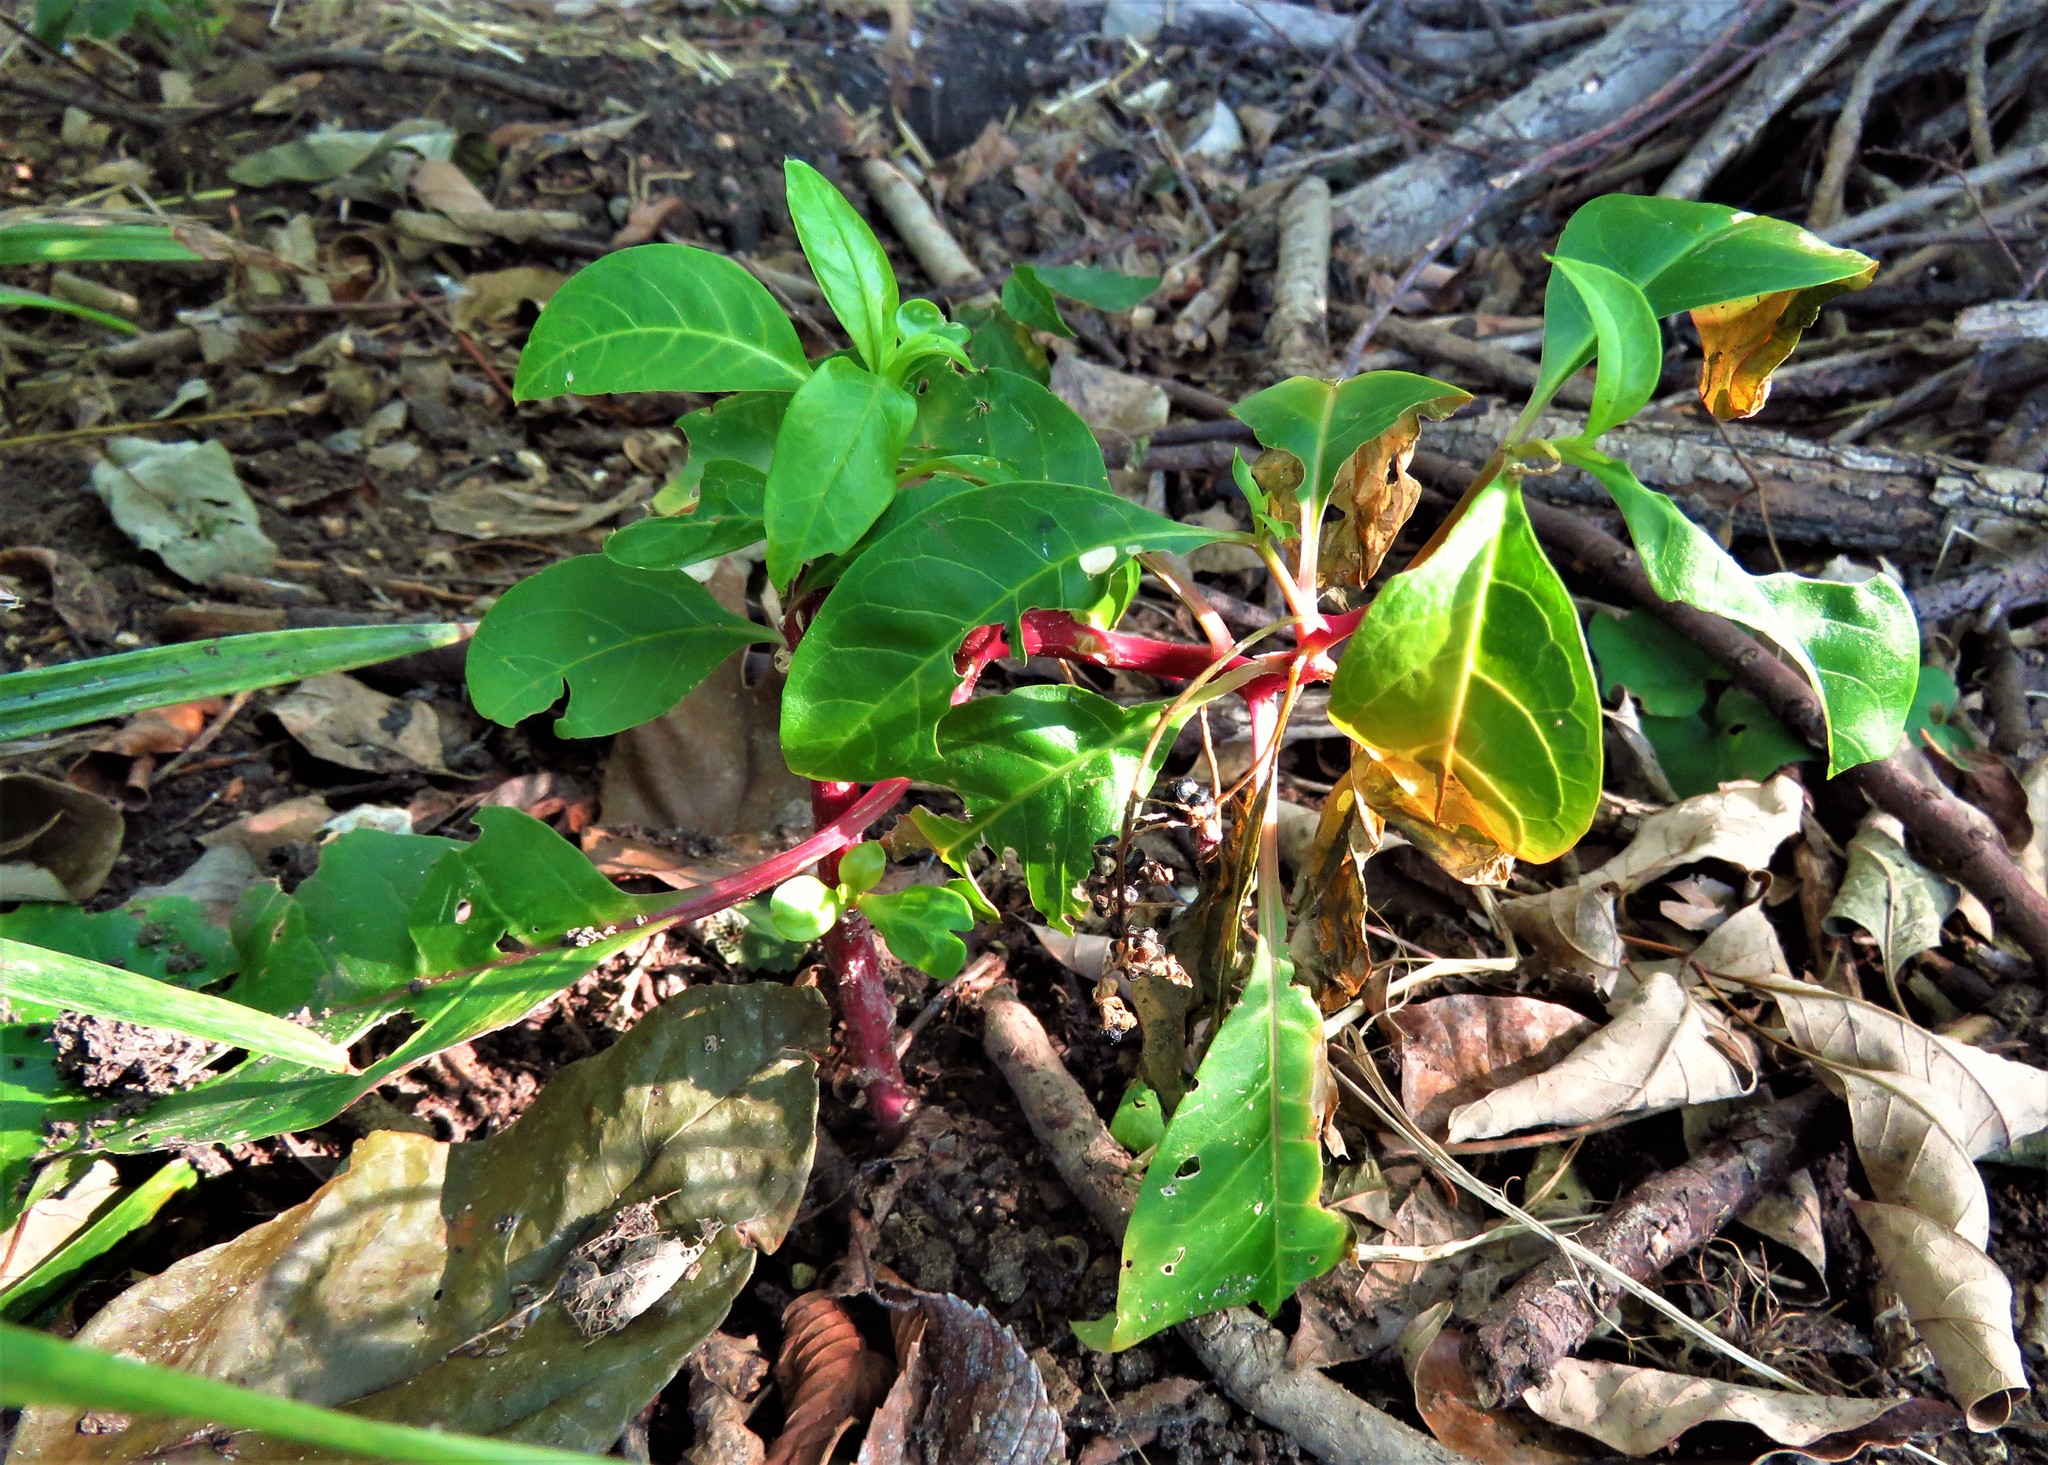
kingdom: Plantae
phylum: Tracheophyta
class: Magnoliopsida
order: Caryophyllales
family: Phytolaccaceae
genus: Phytolacca
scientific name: Phytolacca americana
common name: American pokeweed
